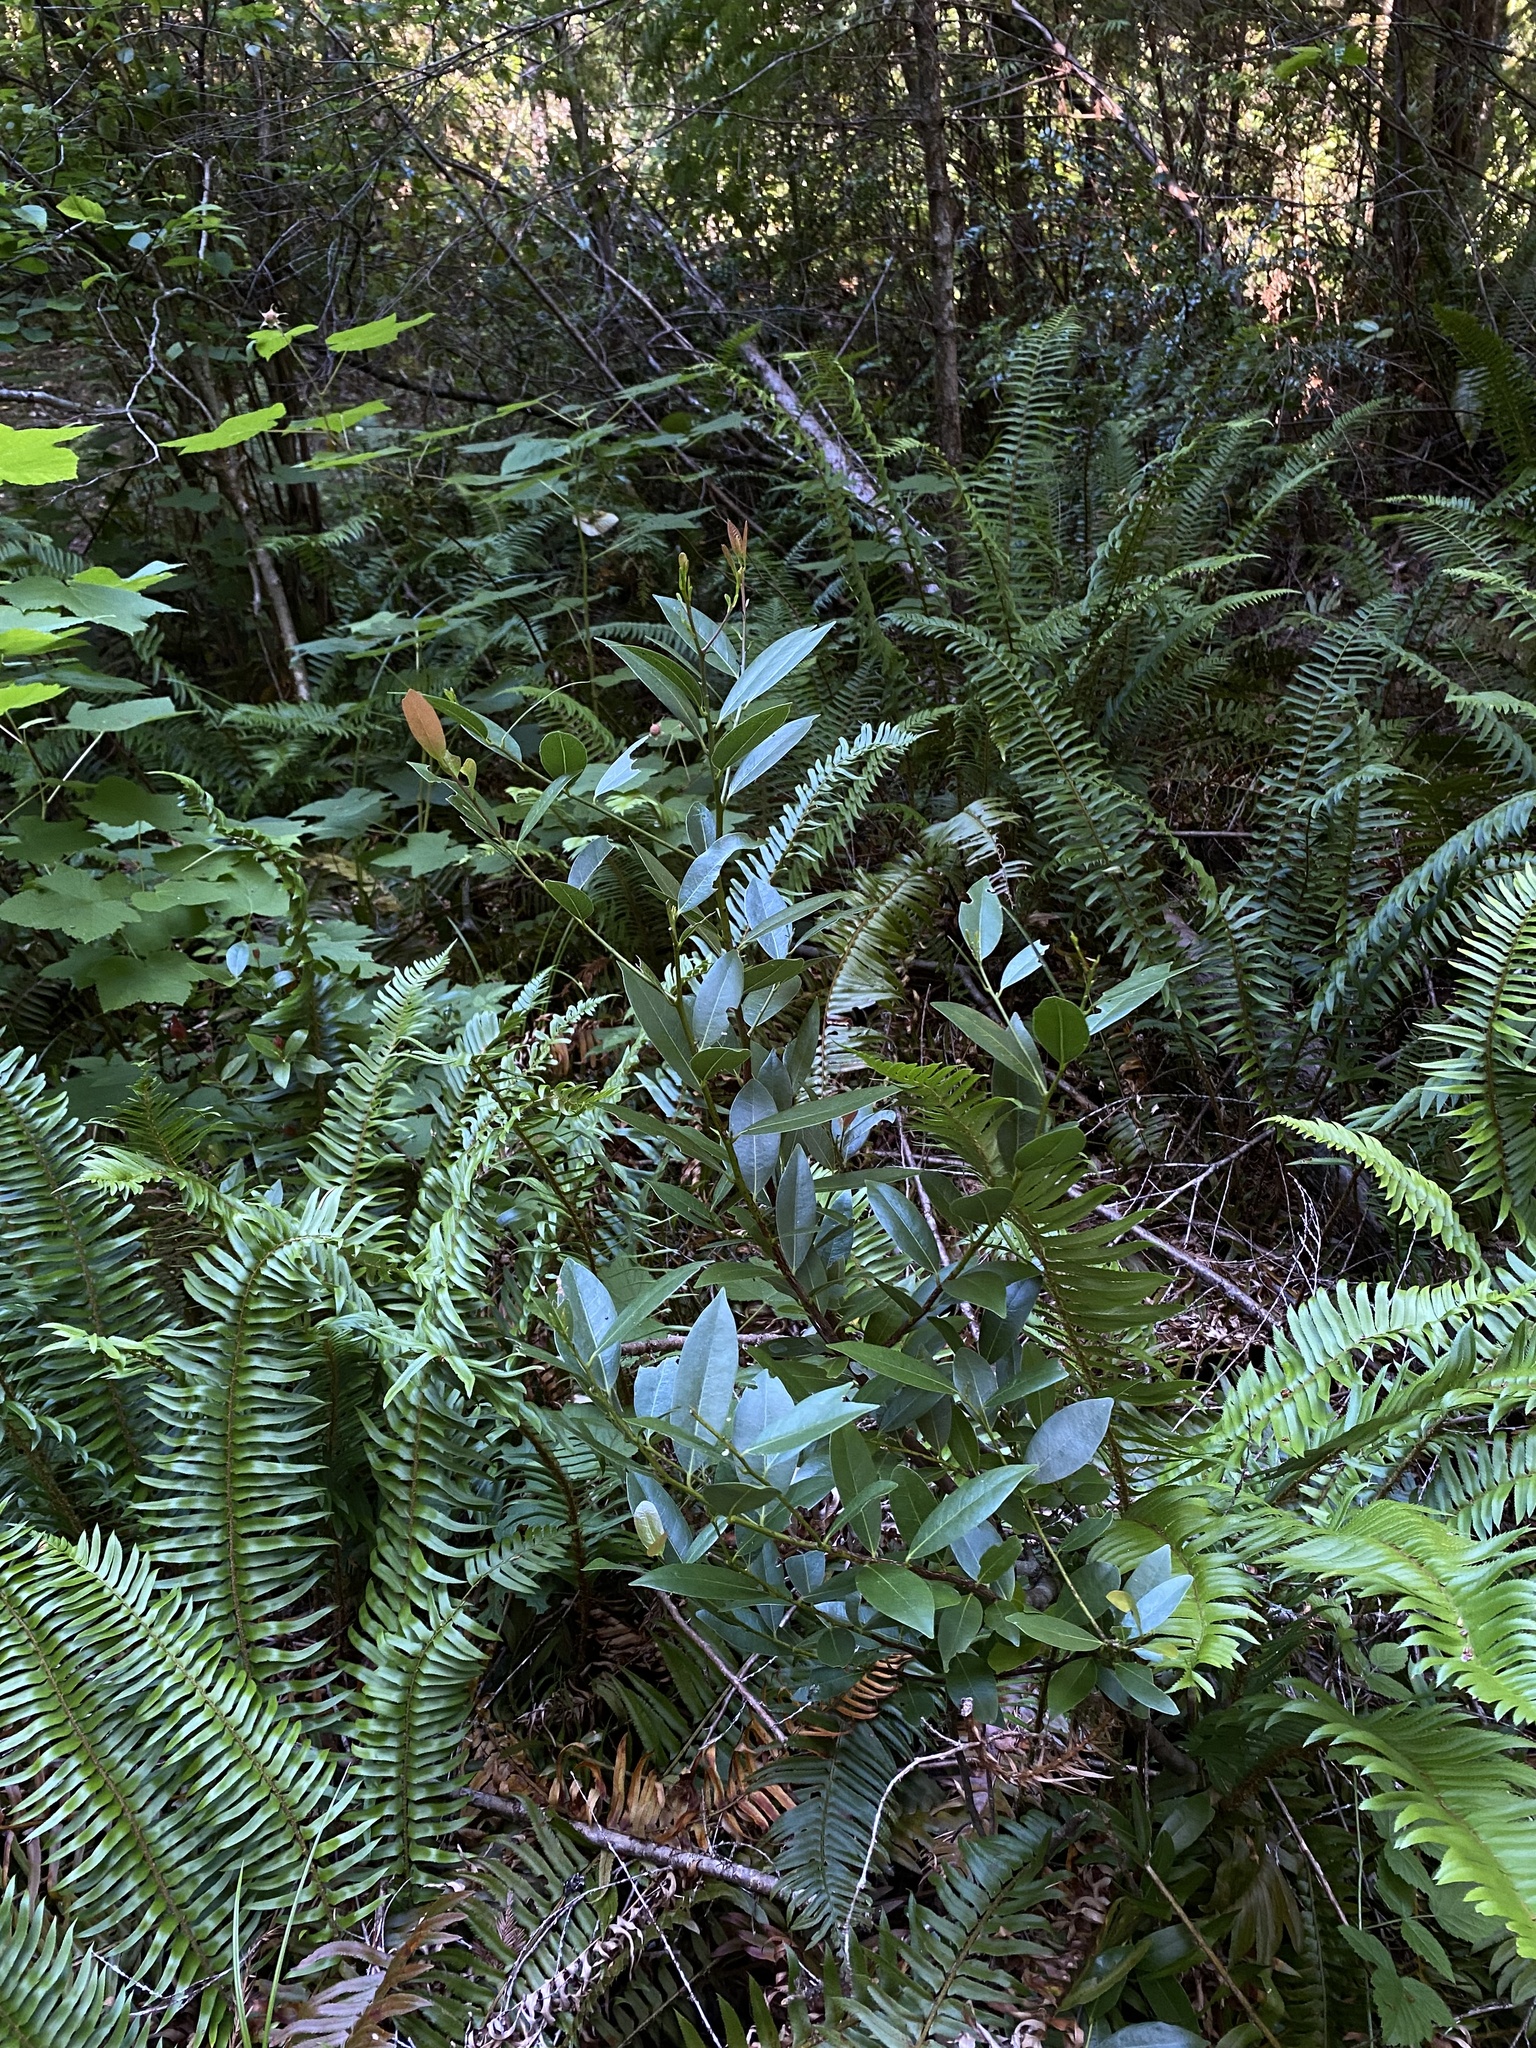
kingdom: Plantae
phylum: Tracheophyta
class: Magnoliopsida
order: Laurales
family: Lauraceae
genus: Umbellularia
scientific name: Umbellularia californica
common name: California bay
